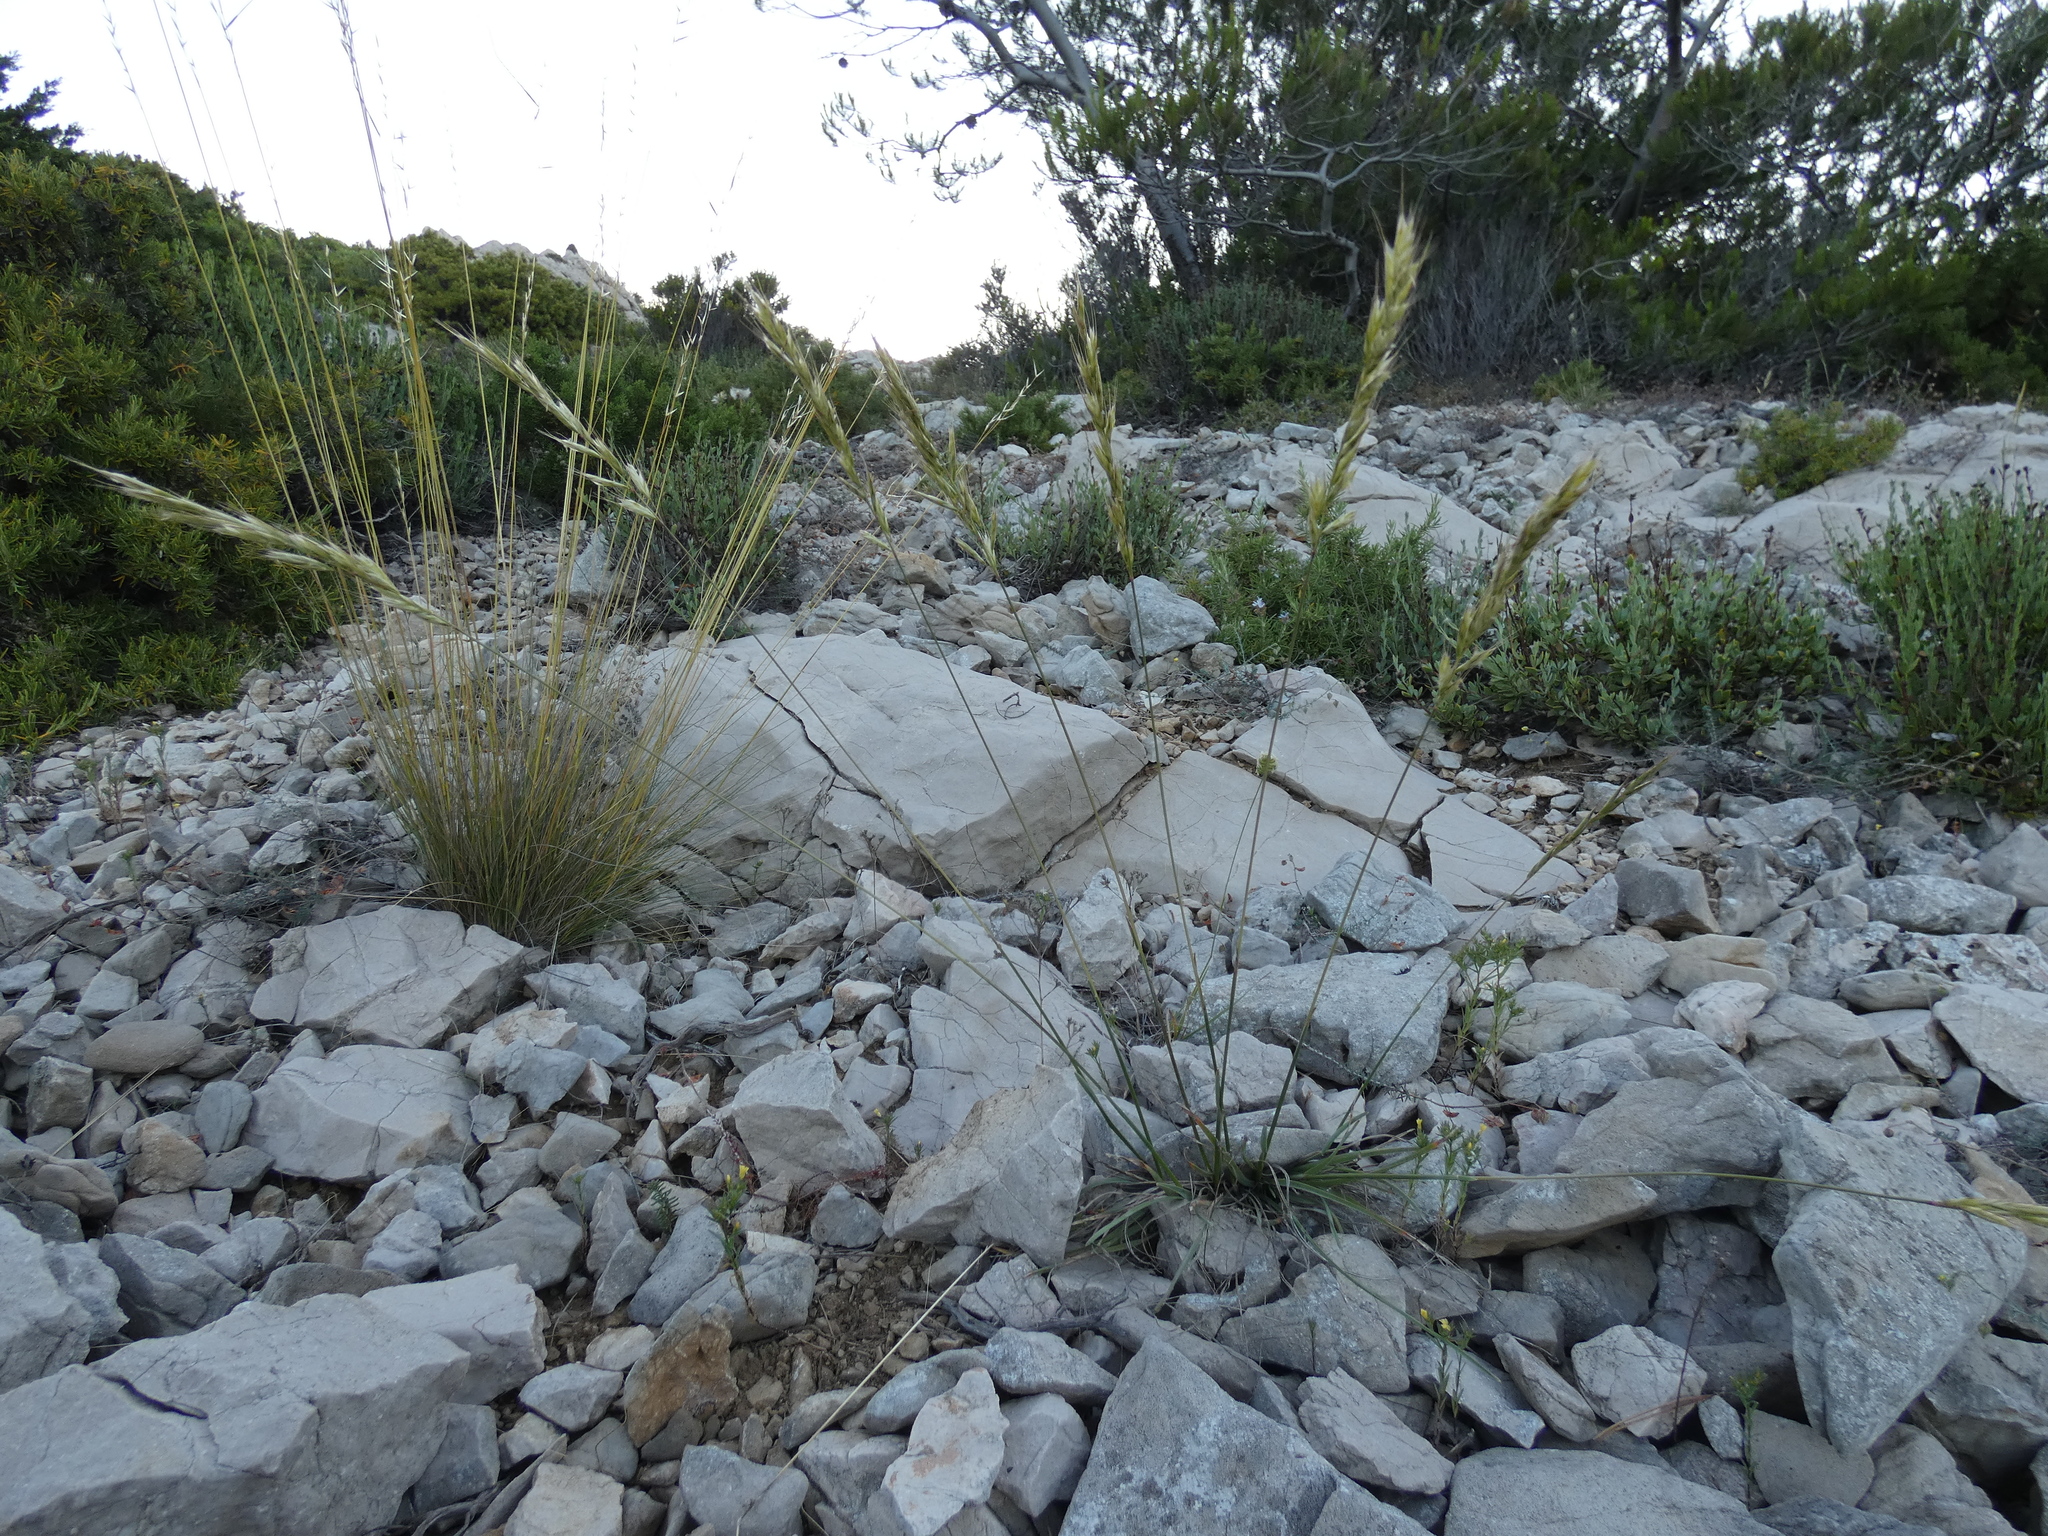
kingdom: Plantae
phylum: Tracheophyta
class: Liliopsida
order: Poales
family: Poaceae
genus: Helictochloa
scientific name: Helictochloa bromoides
